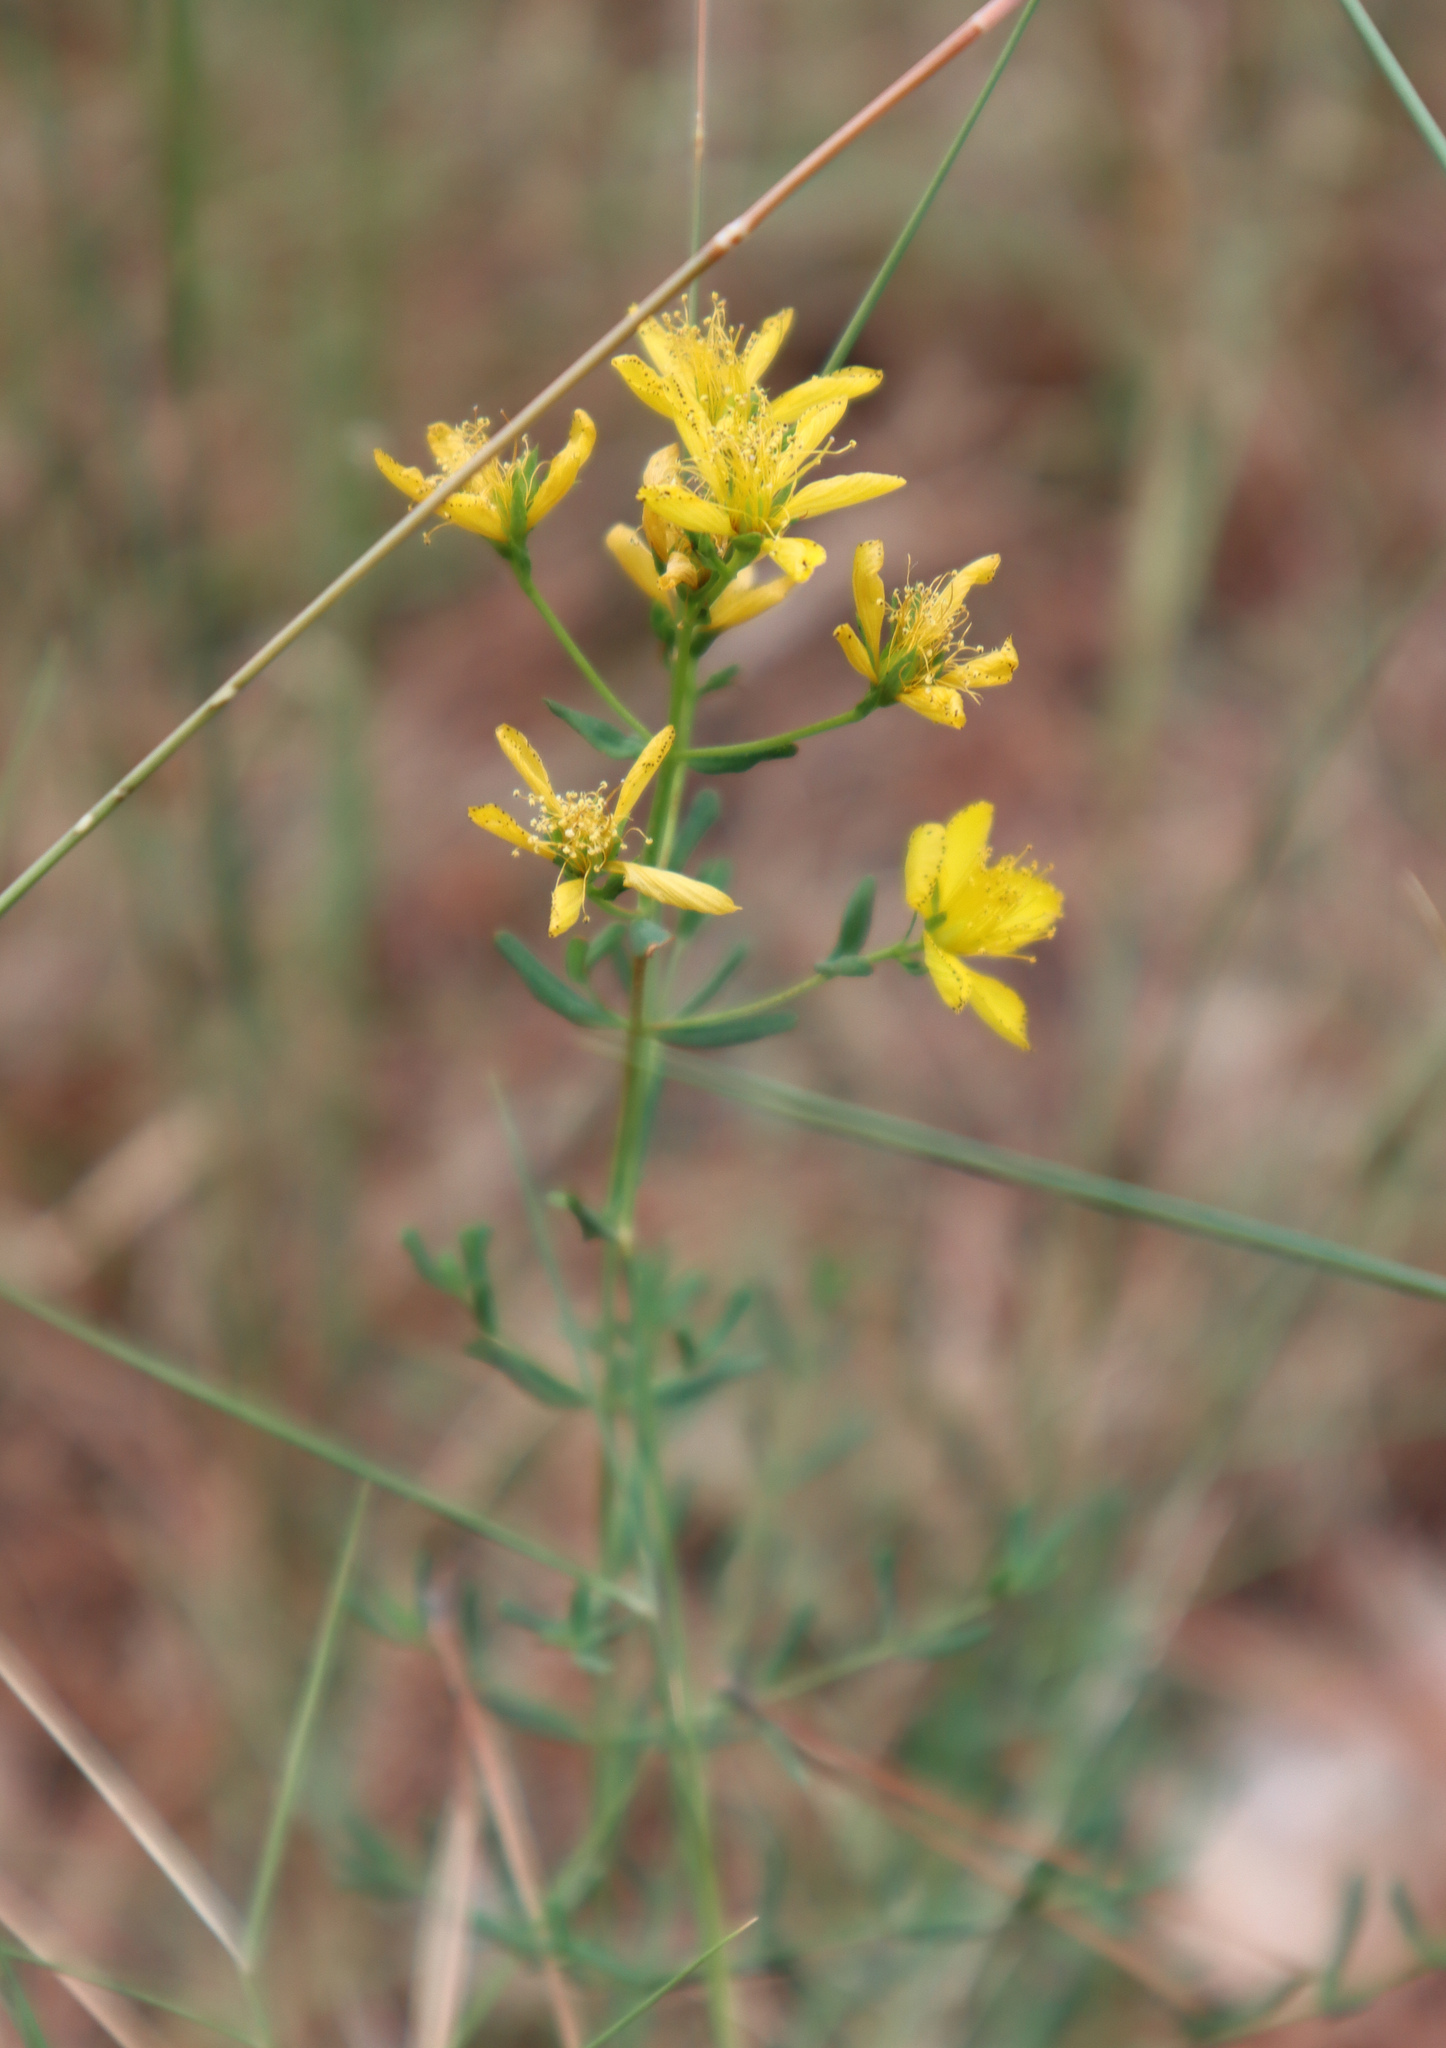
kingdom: Plantae
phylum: Tracheophyta
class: Magnoliopsida
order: Malpighiales
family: Hypericaceae
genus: Hypericum
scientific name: Hypericum perforatum
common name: Common st. johnswort
